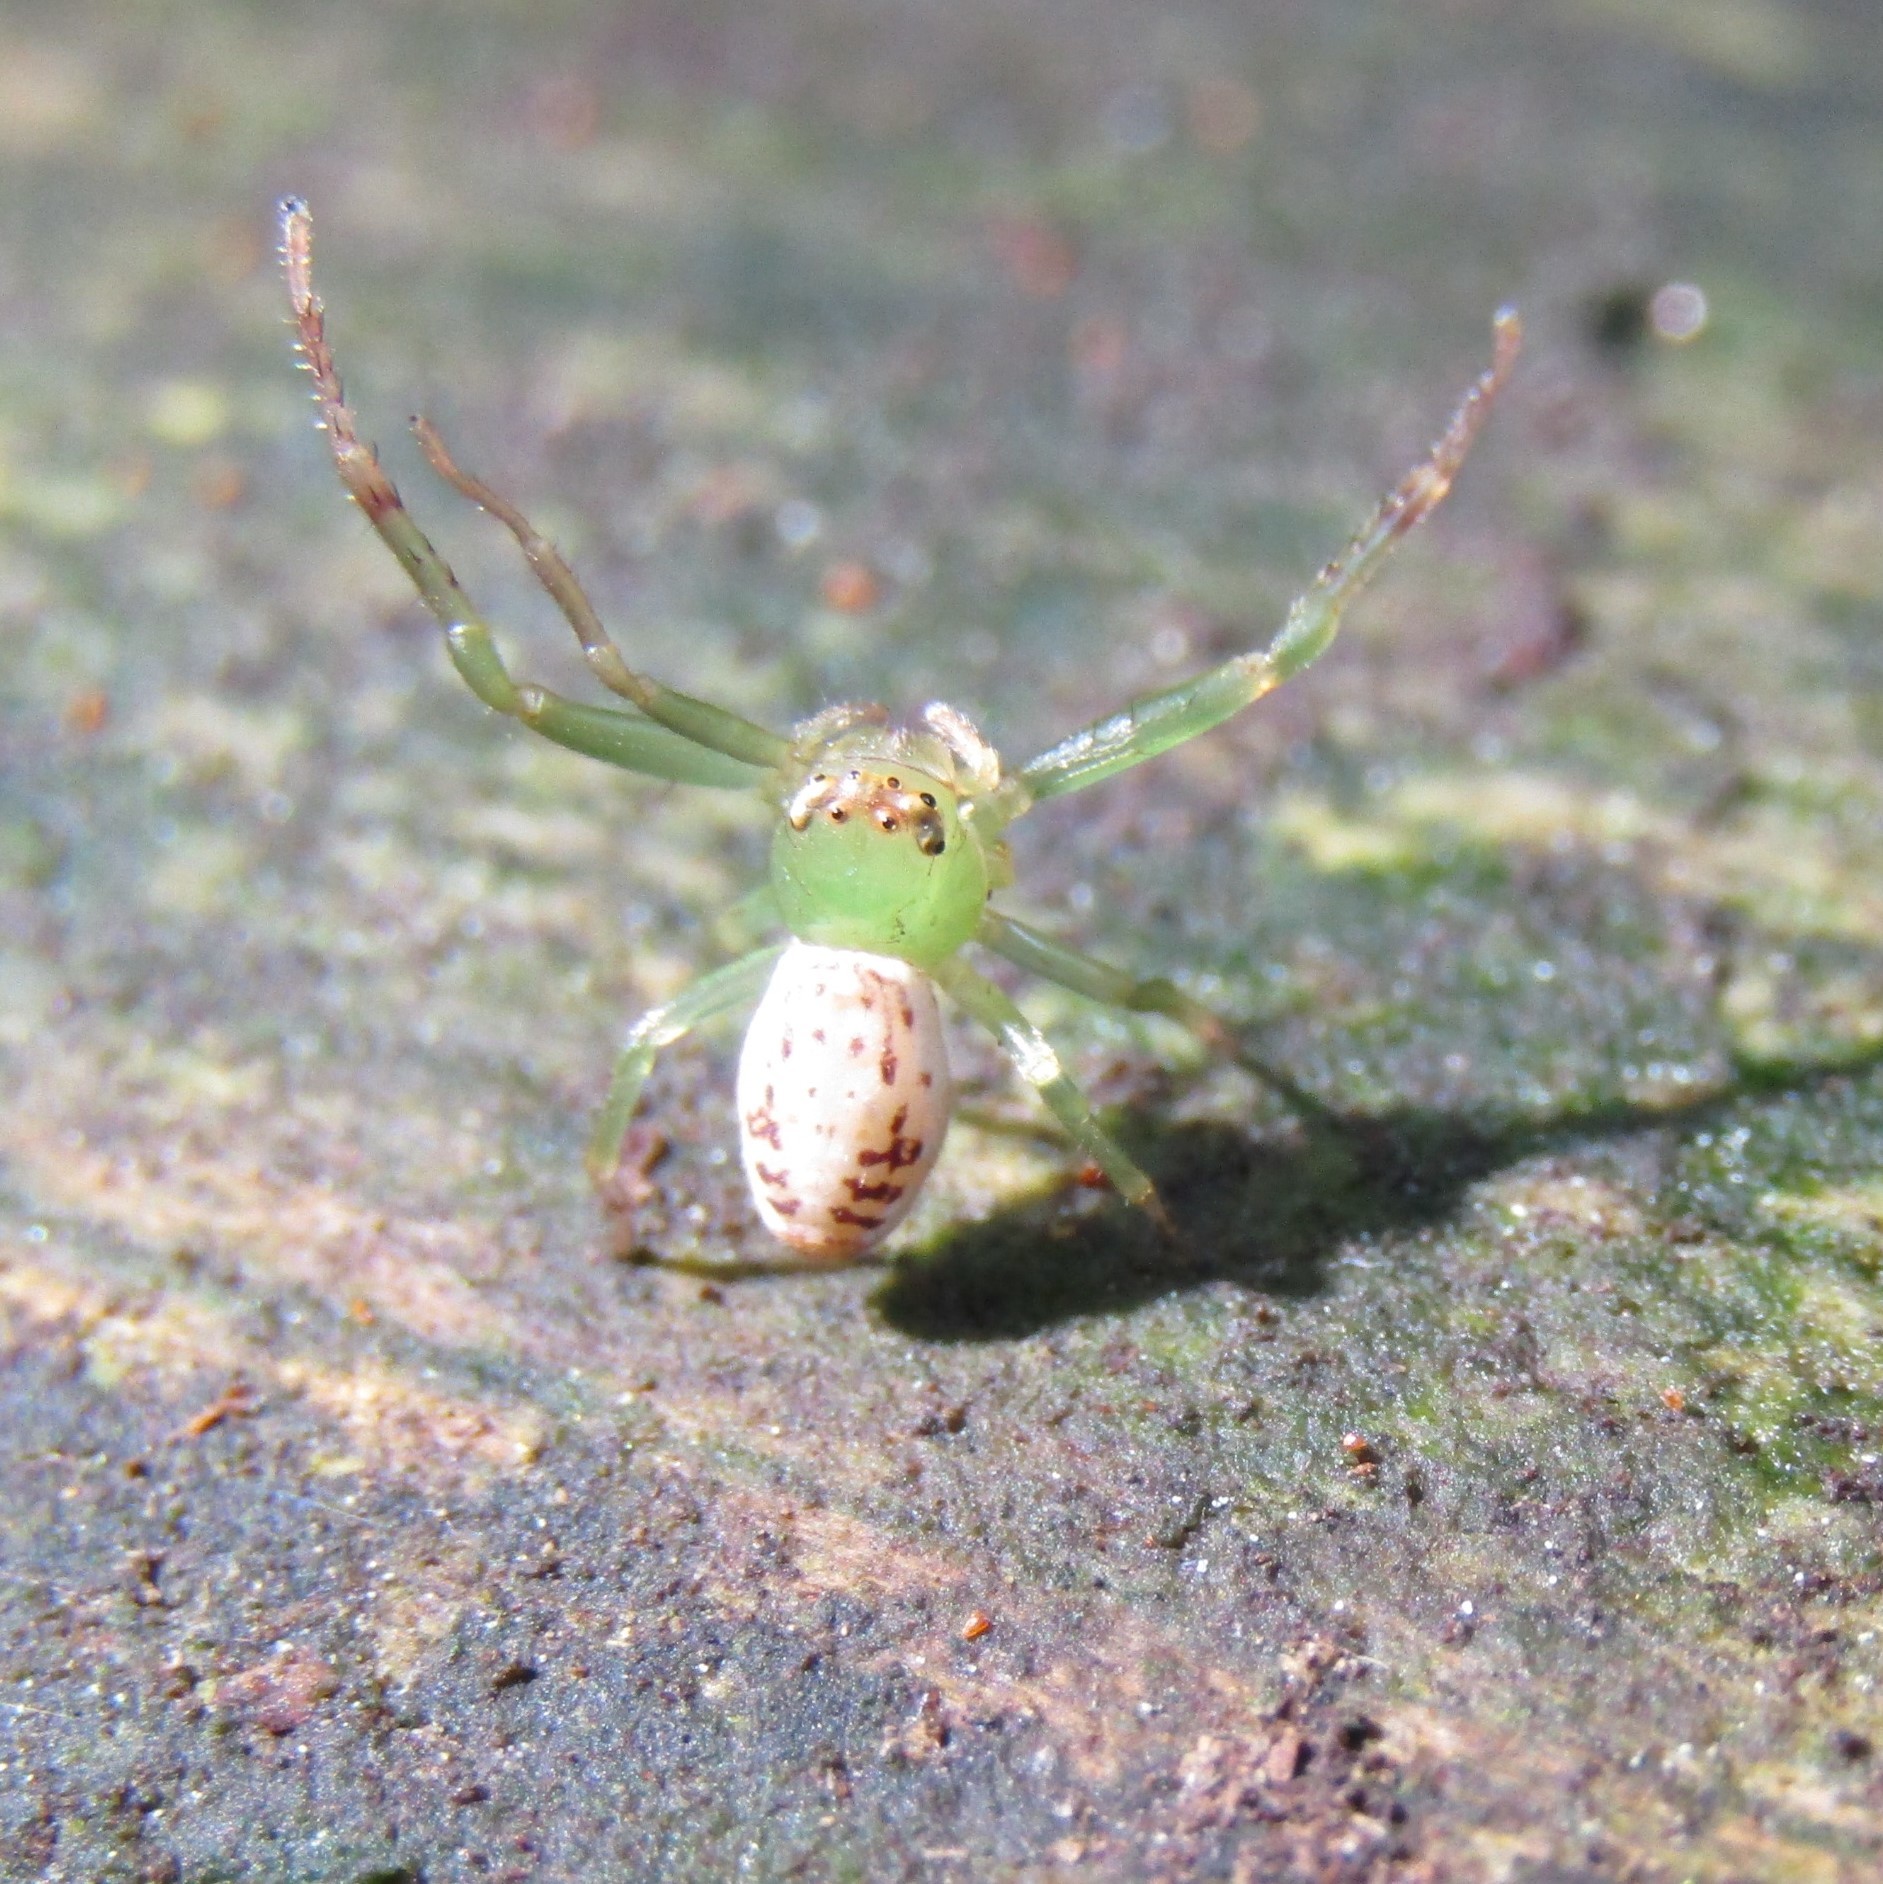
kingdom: Animalia
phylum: Arthropoda
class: Arachnida
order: Araneae
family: Thomisidae
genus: Diaea
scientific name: Diaea ambara
